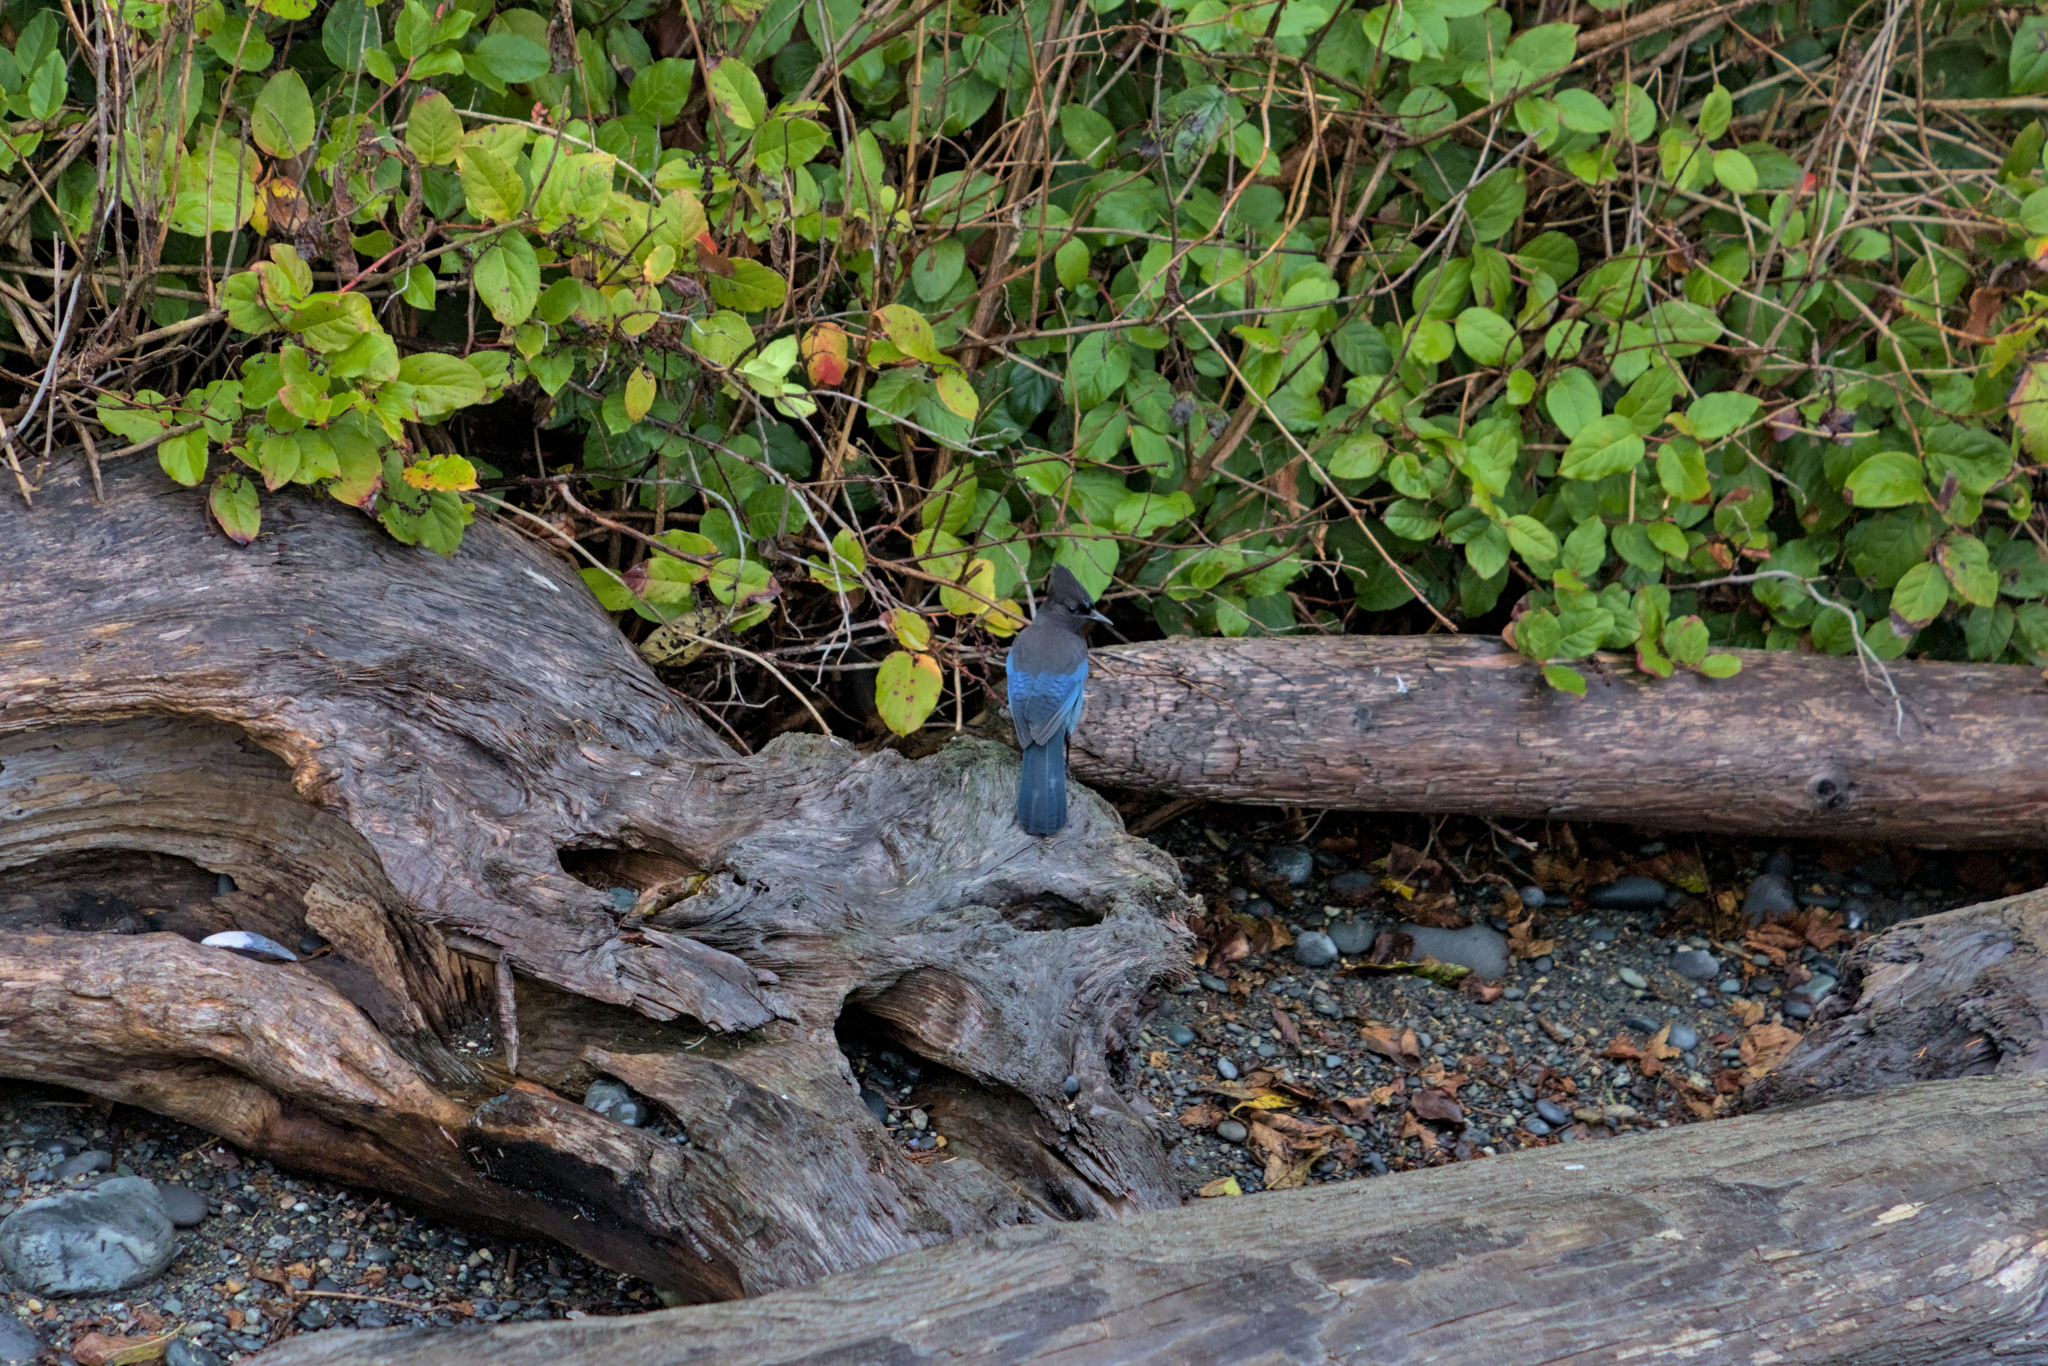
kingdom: Animalia
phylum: Chordata
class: Aves
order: Passeriformes
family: Corvidae
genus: Cyanocitta
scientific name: Cyanocitta stelleri
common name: Steller's jay
